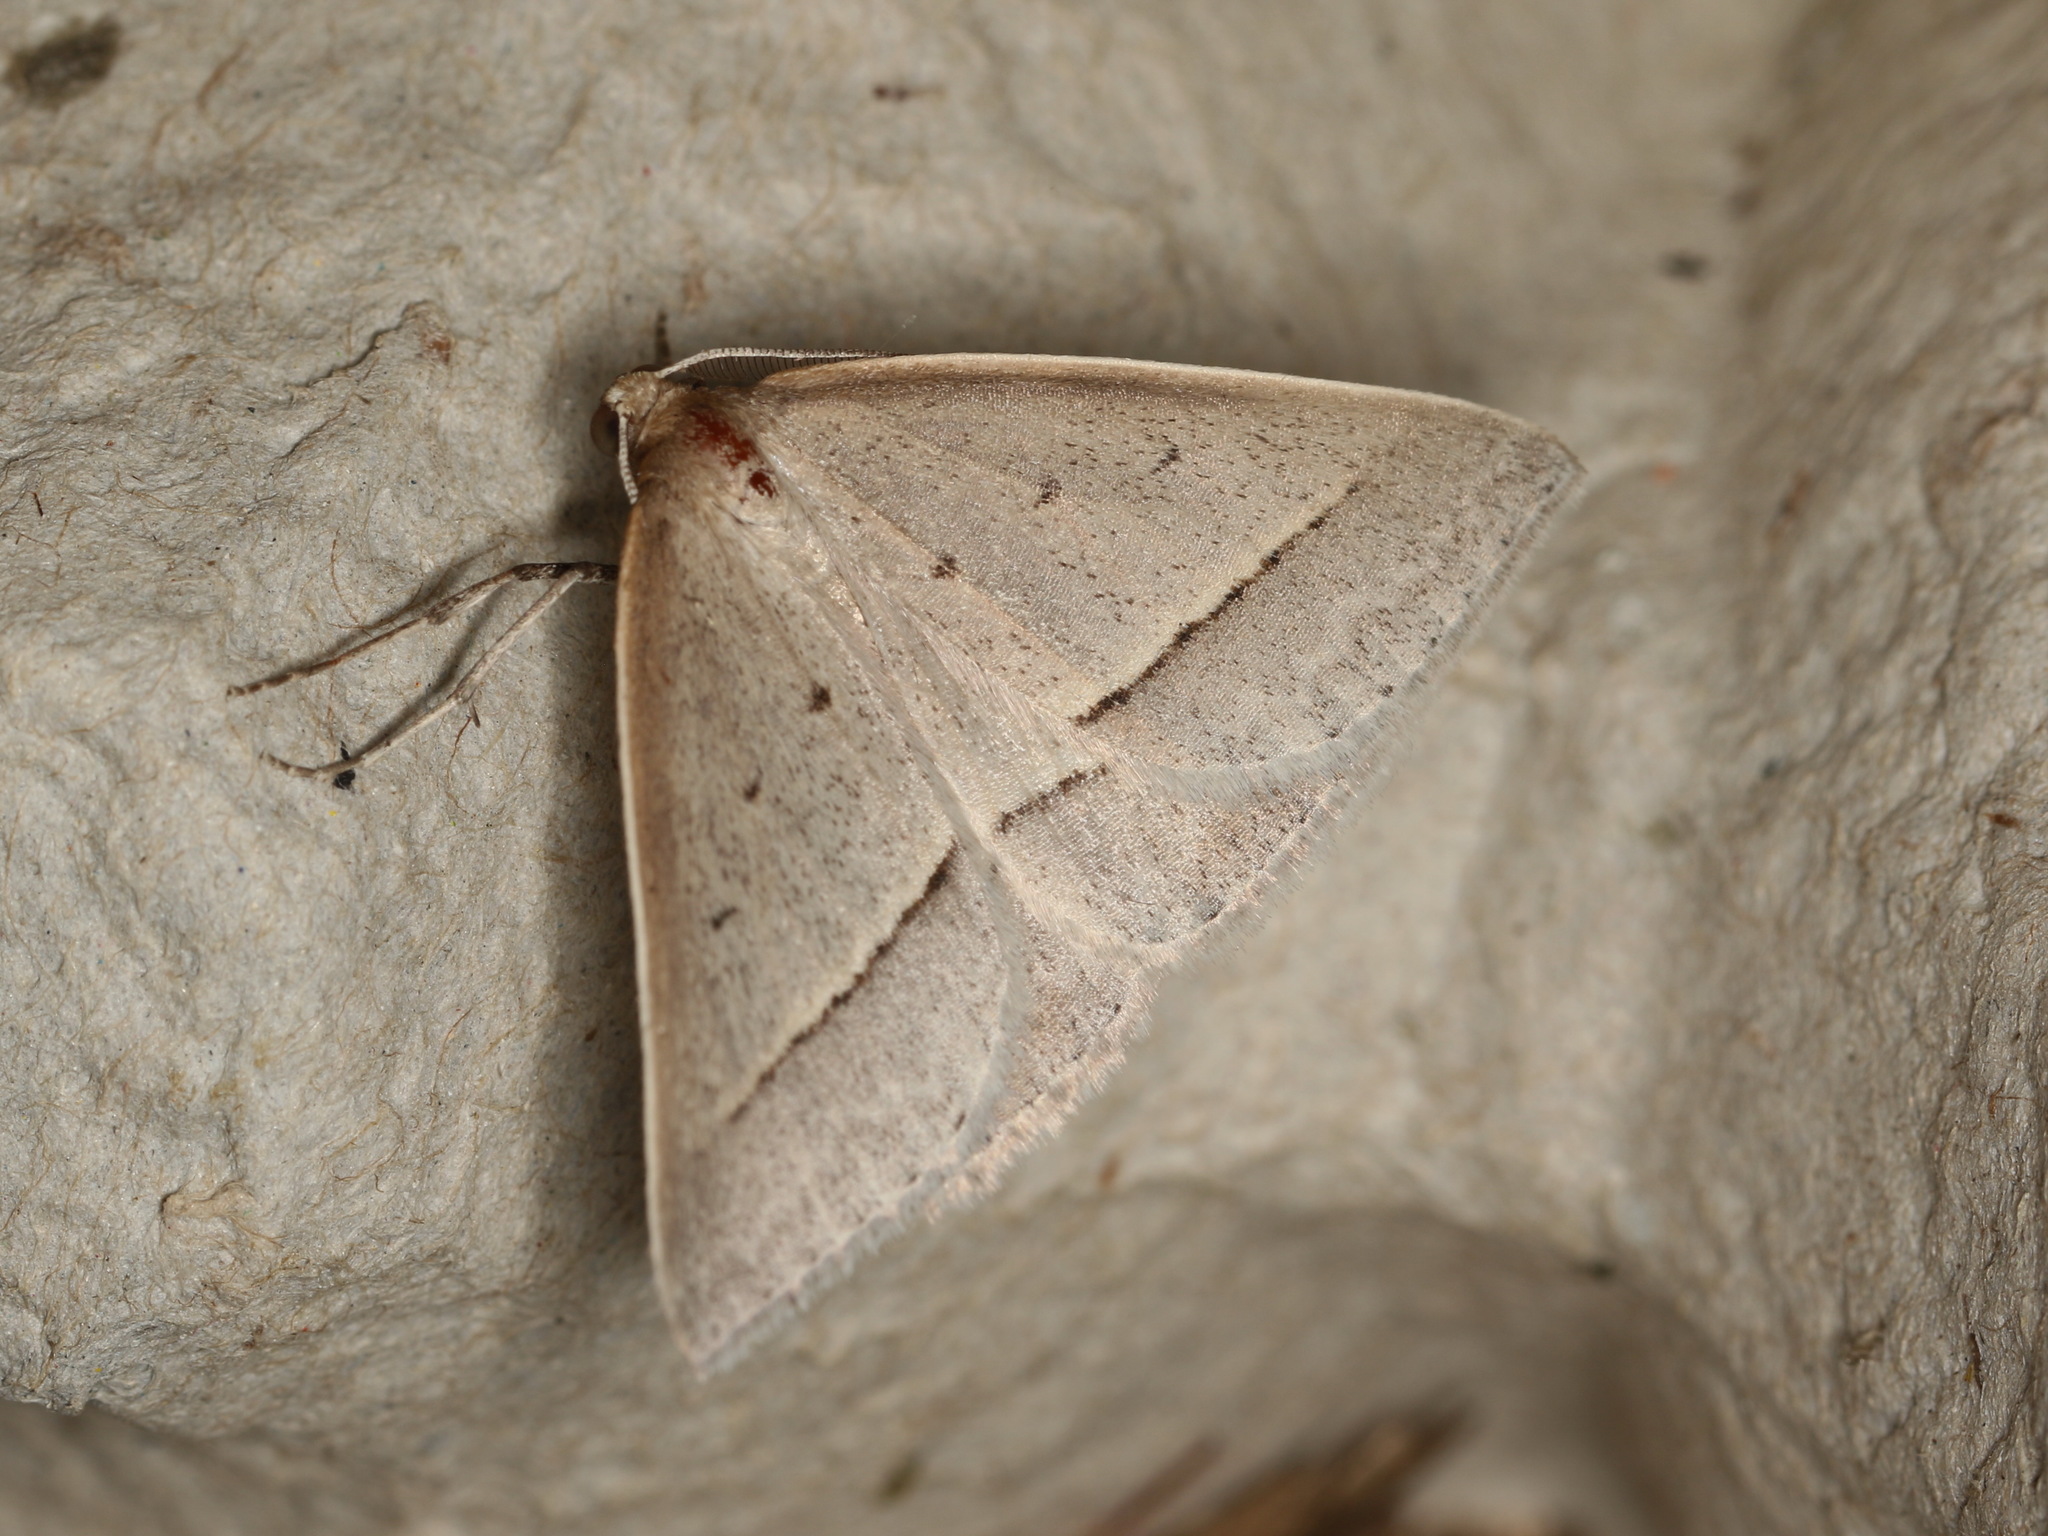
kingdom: Animalia
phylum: Arthropoda
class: Insecta
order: Lepidoptera
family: Geometridae
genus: Epidesmia
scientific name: Epidesmia tryxaria
